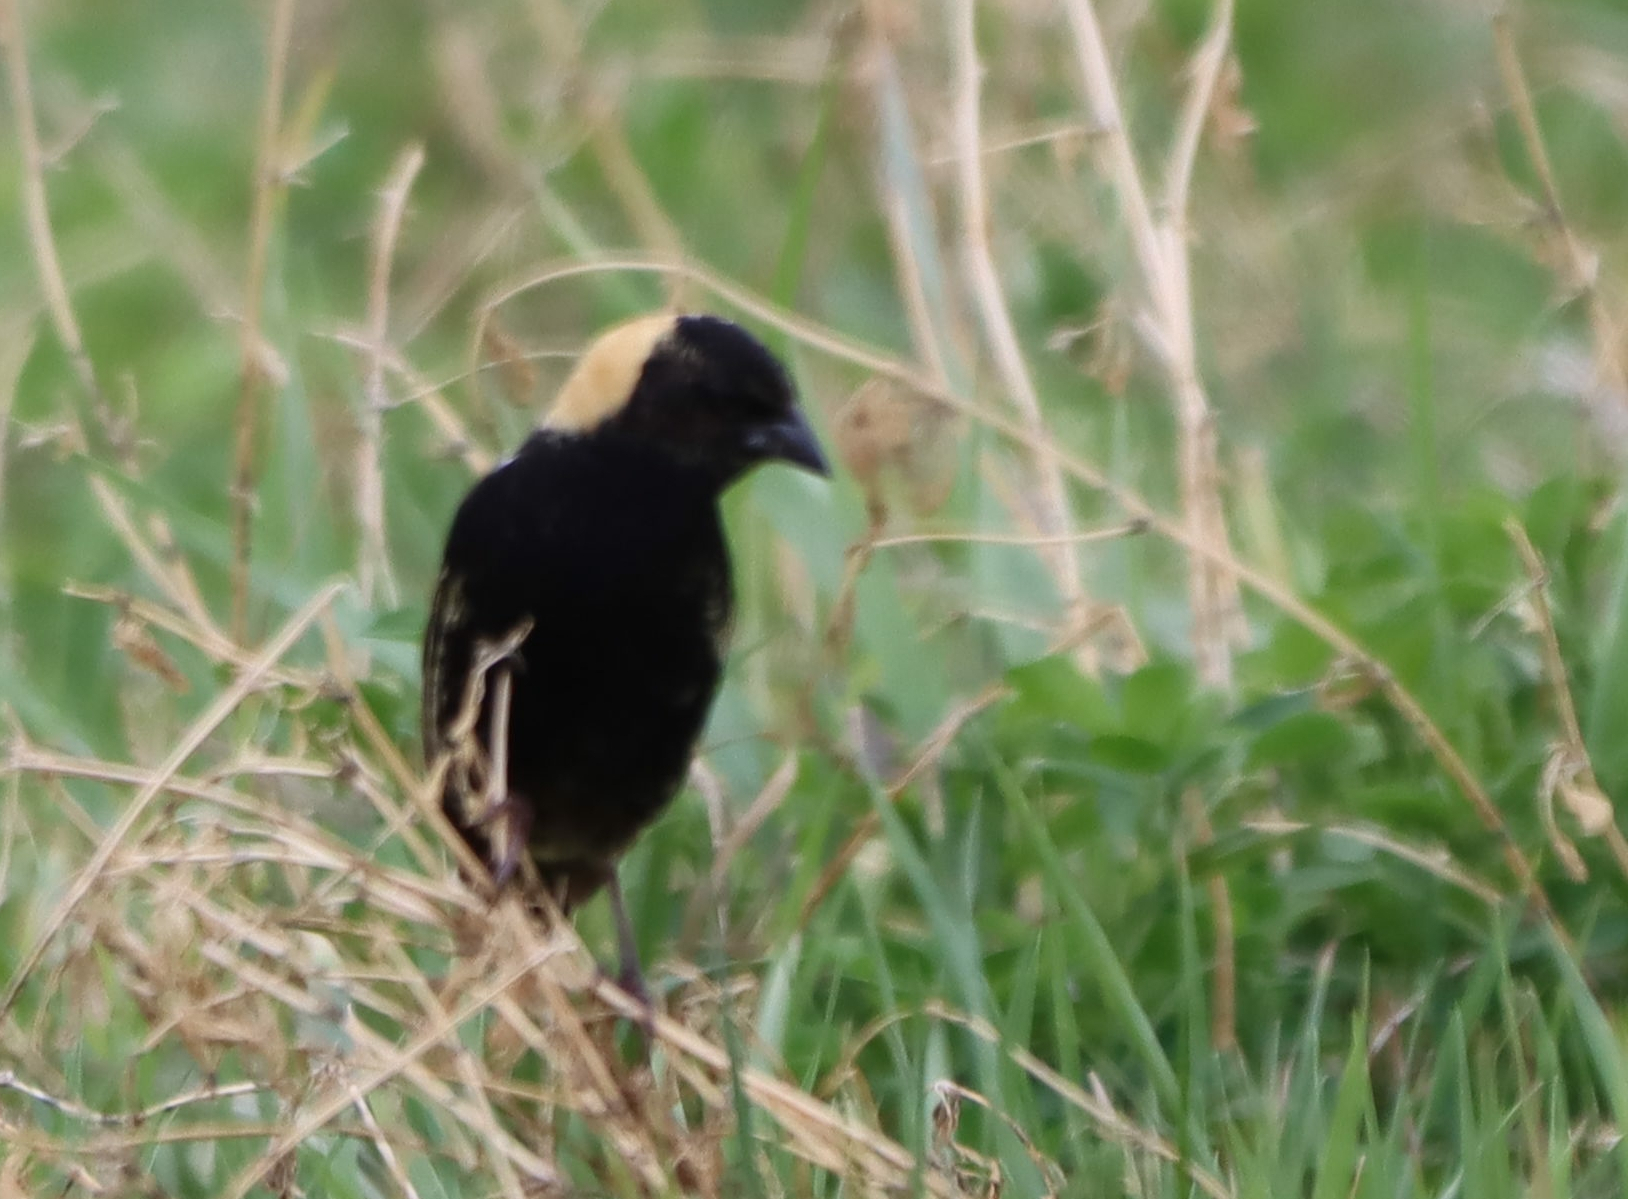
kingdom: Animalia
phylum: Chordata
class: Aves
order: Passeriformes
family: Icteridae
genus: Dolichonyx
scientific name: Dolichonyx oryzivorus
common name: Bobolink
